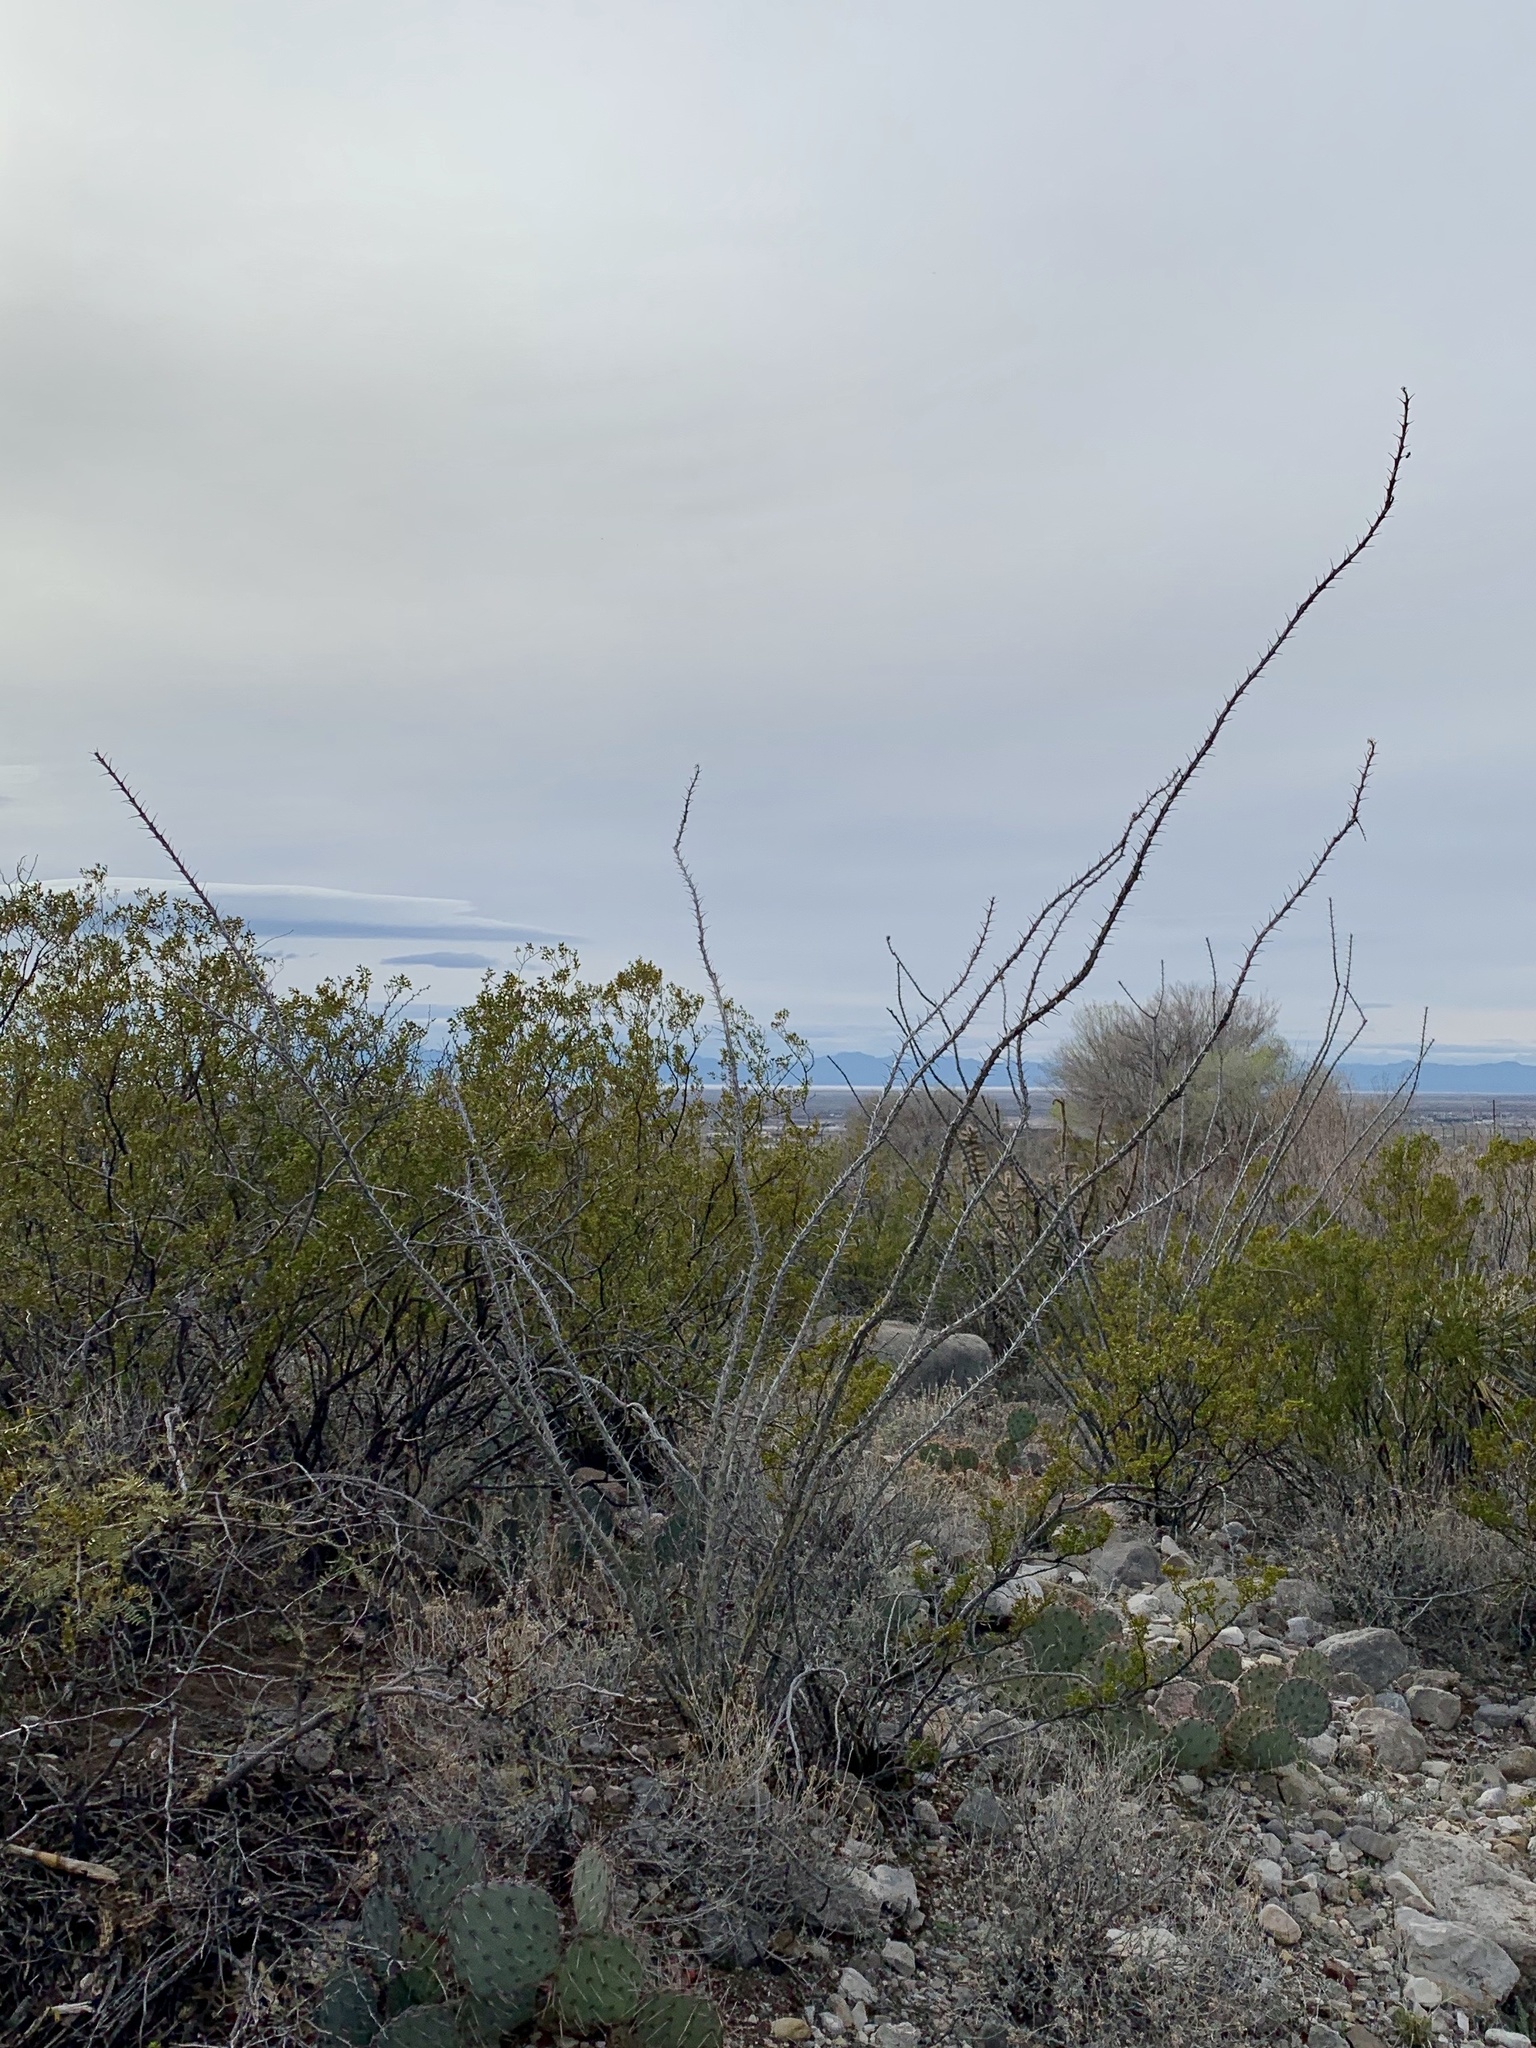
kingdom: Plantae
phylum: Tracheophyta
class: Magnoliopsida
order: Ericales
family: Fouquieriaceae
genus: Fouquieria
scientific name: Fouquieria splendens
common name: Vine-cactus
